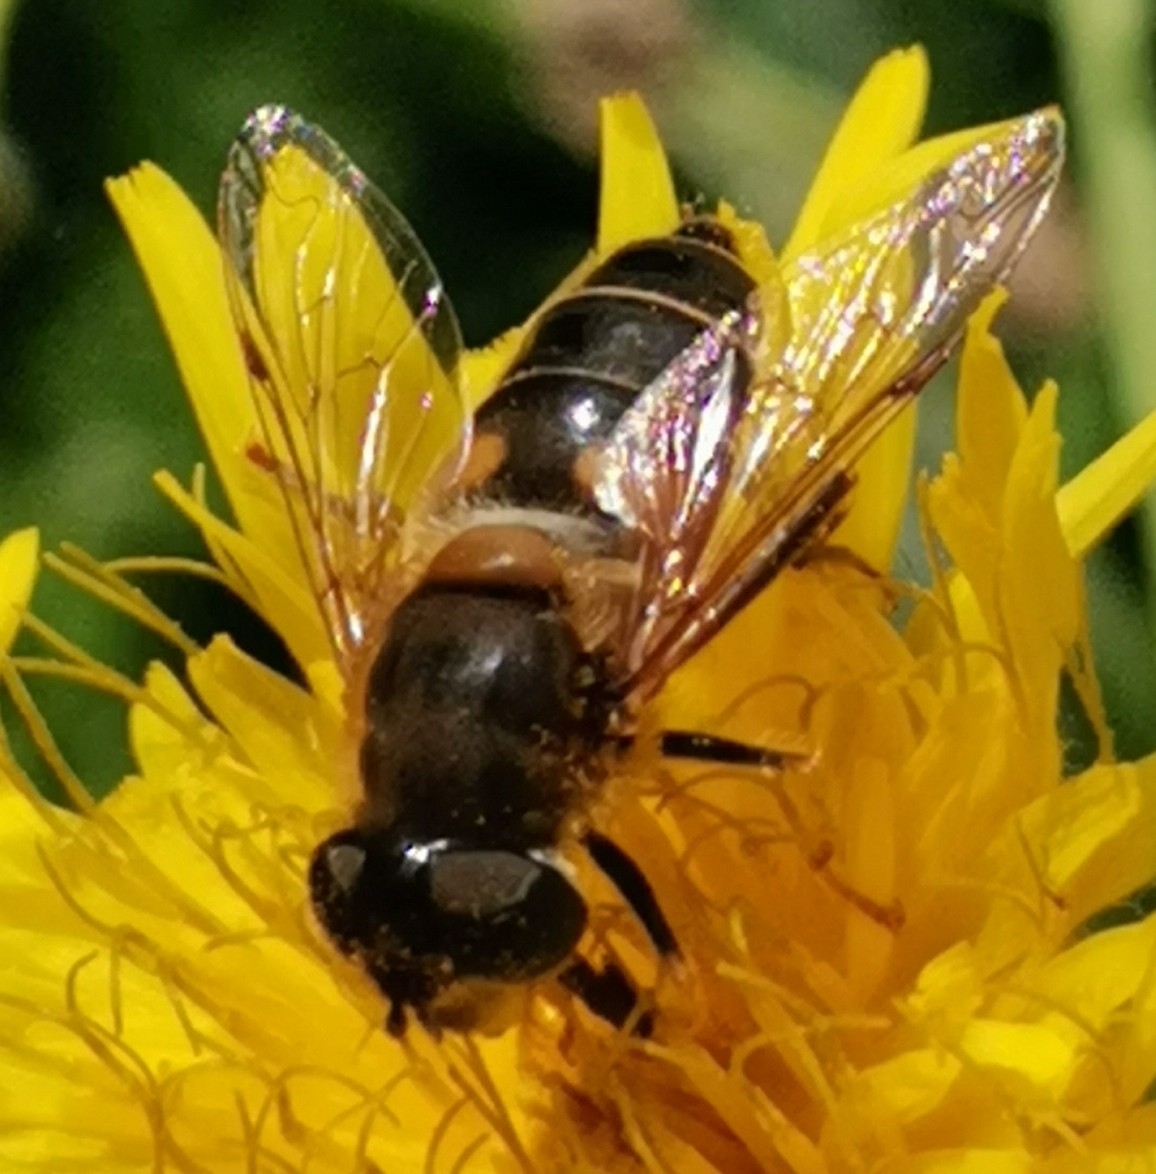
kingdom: Animalia
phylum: Arthropoda
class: Insecta
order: Diptera
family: Syrphidae
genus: Eristalis
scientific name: Eristalis pertinax
